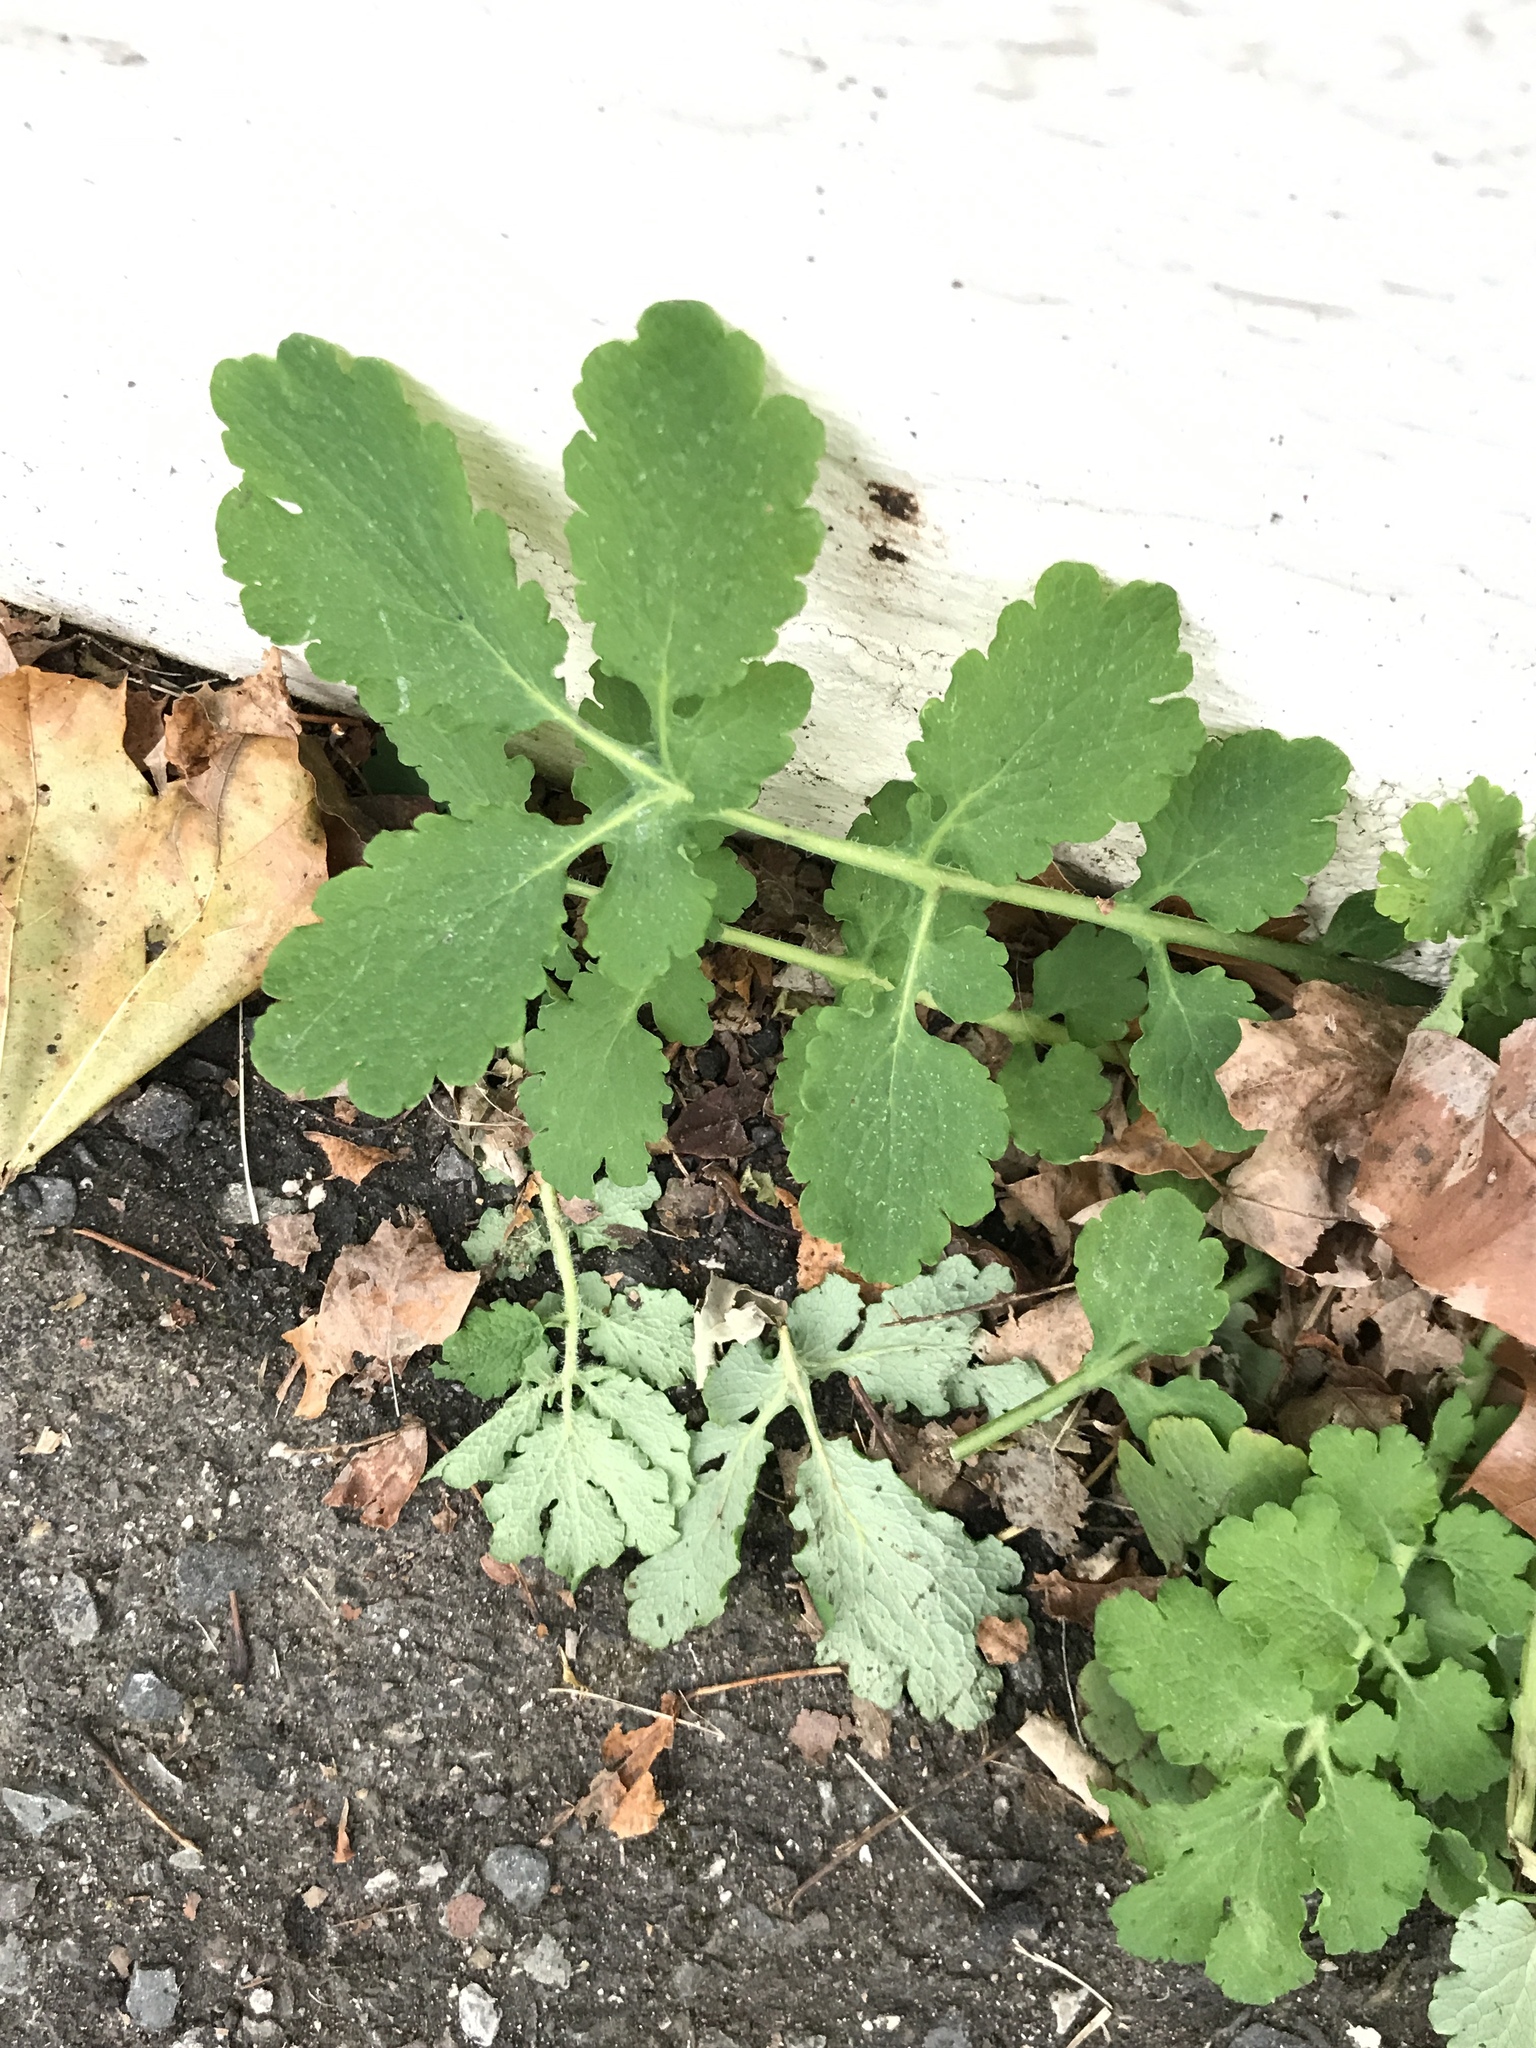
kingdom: Plantae
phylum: Tracheophyta
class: Magnoliopsida
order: Ranunculales
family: Papaveraceae
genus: Chelidonium
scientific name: Chelidonium majus
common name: Greater celandine
